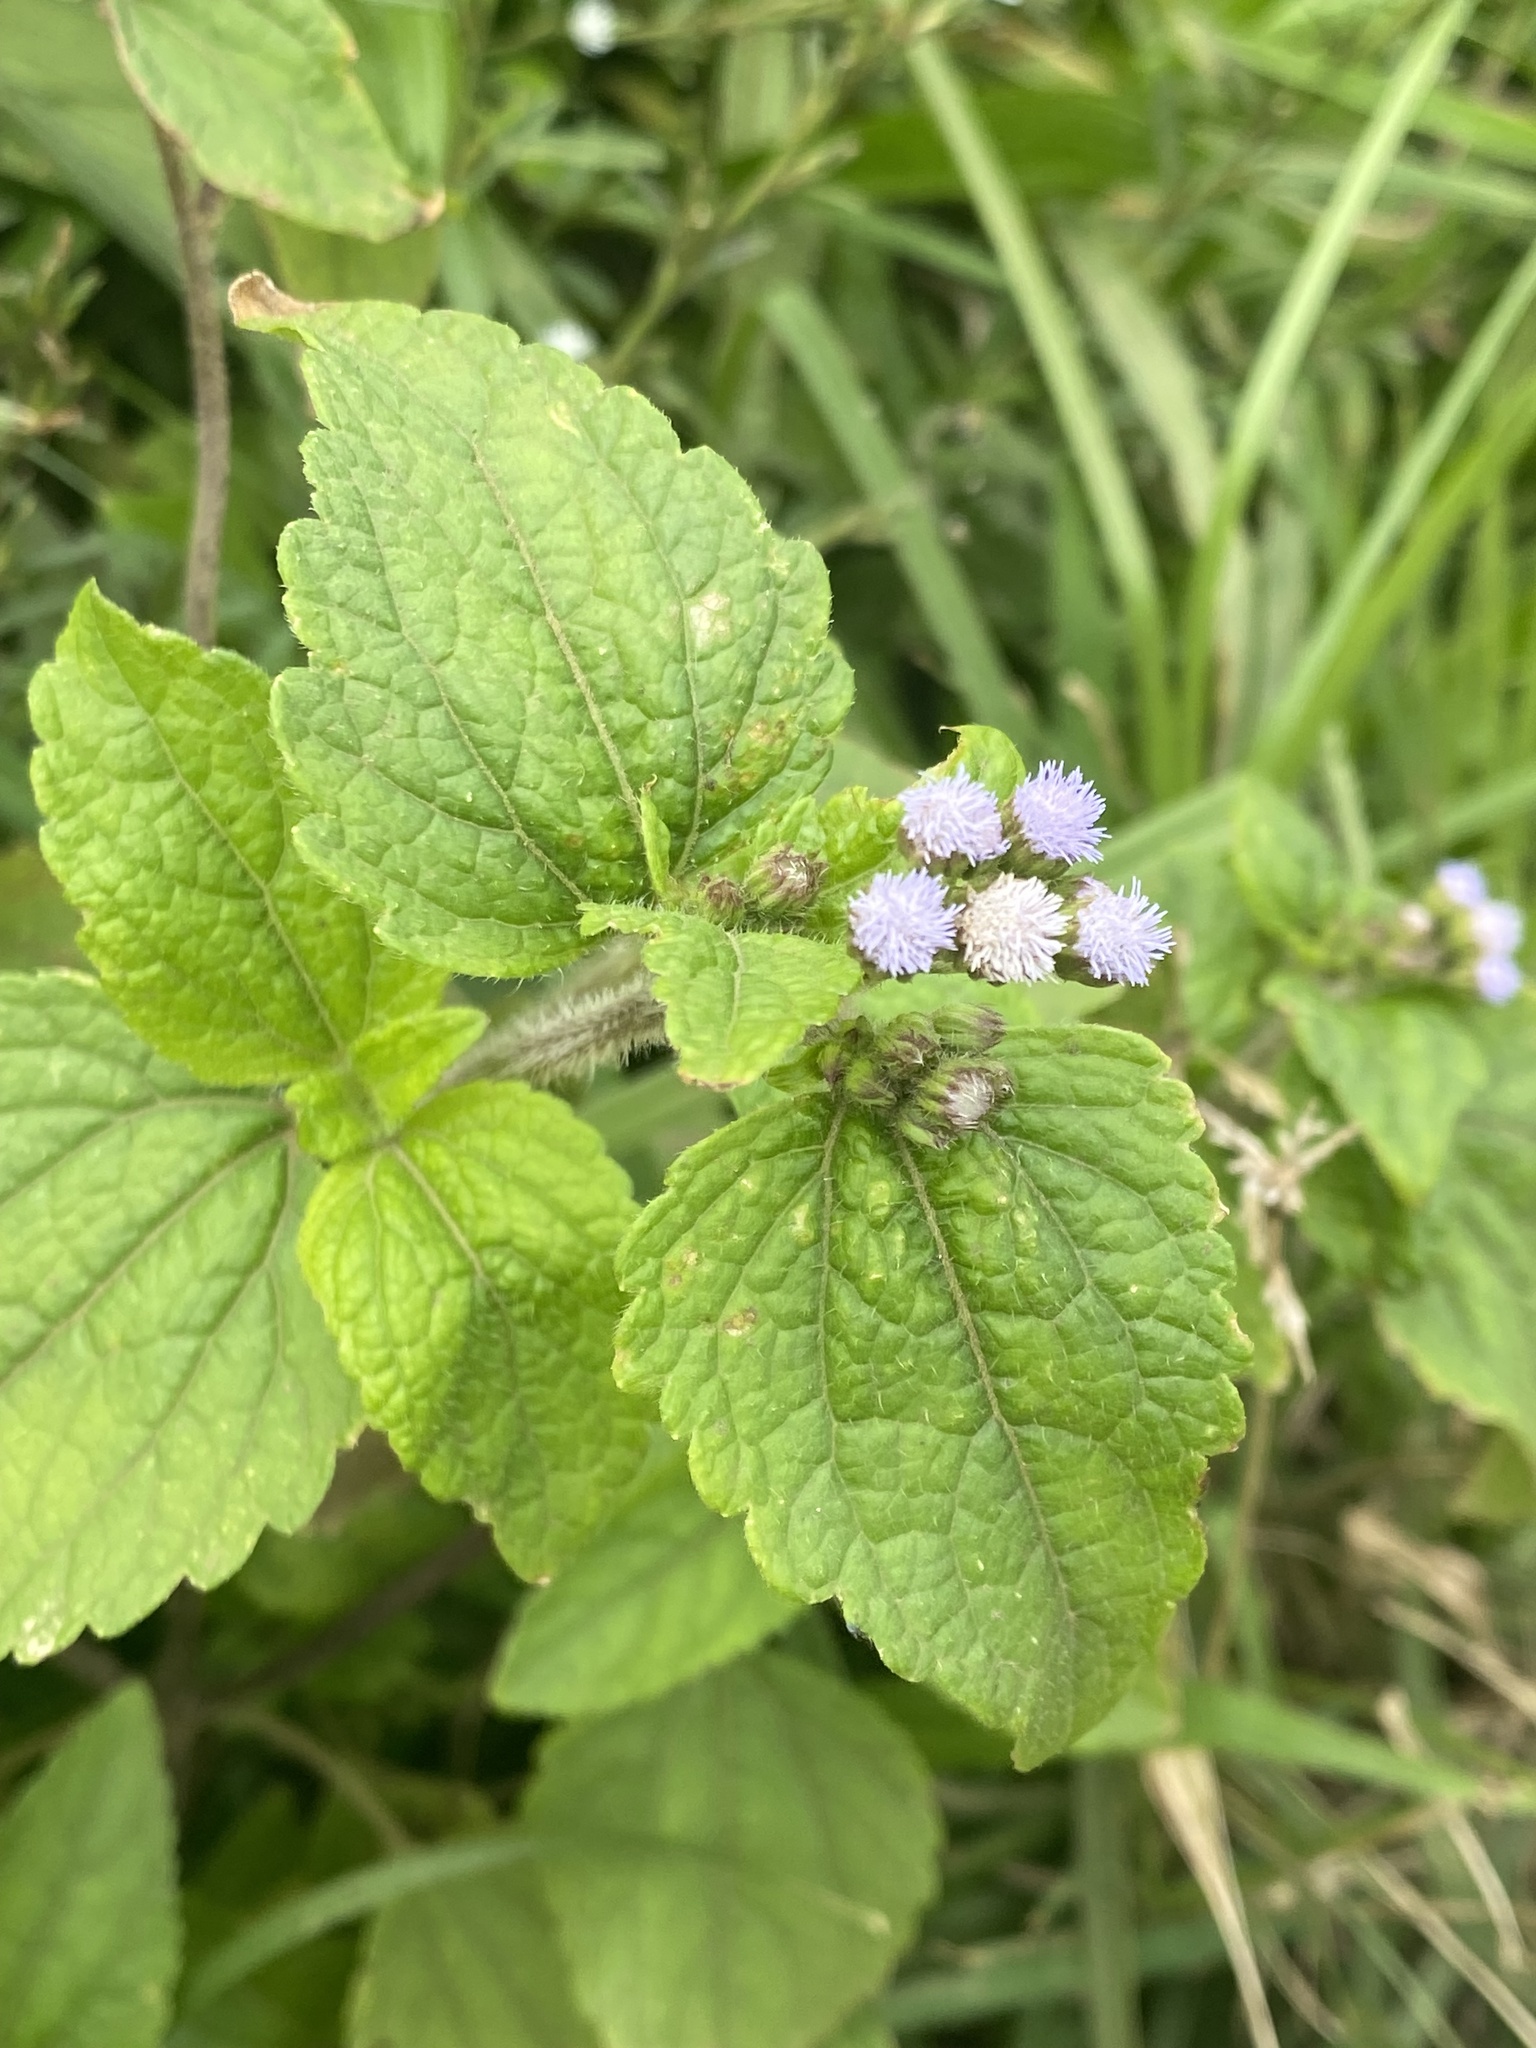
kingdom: Plantae
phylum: Tracheophyta
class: Magnoliopsida
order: Asterales
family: Asteraceae
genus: Ageratum
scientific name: Ageratum conyzoides
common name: Tropical whiteweed
